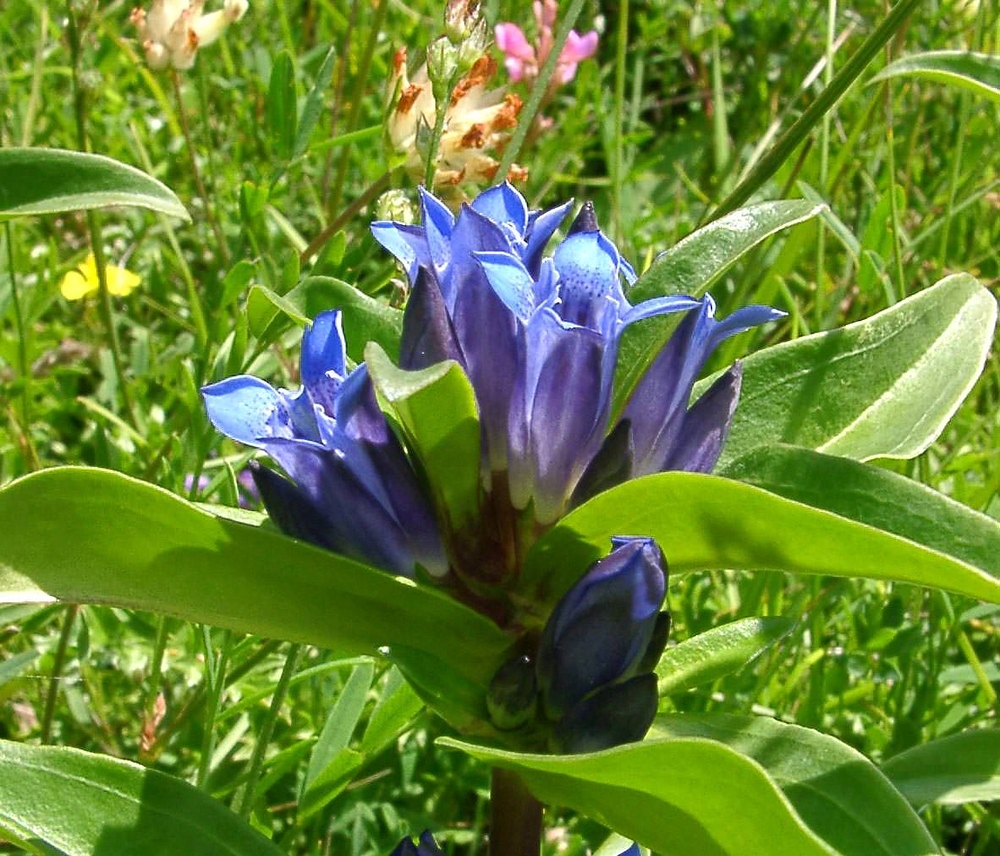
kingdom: Plantae
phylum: Tracheophyta
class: Magnoliopsida
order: Gentianales
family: Gentianaceae
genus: Gentiana
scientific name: Gentiana cruciata
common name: Cross gentian
